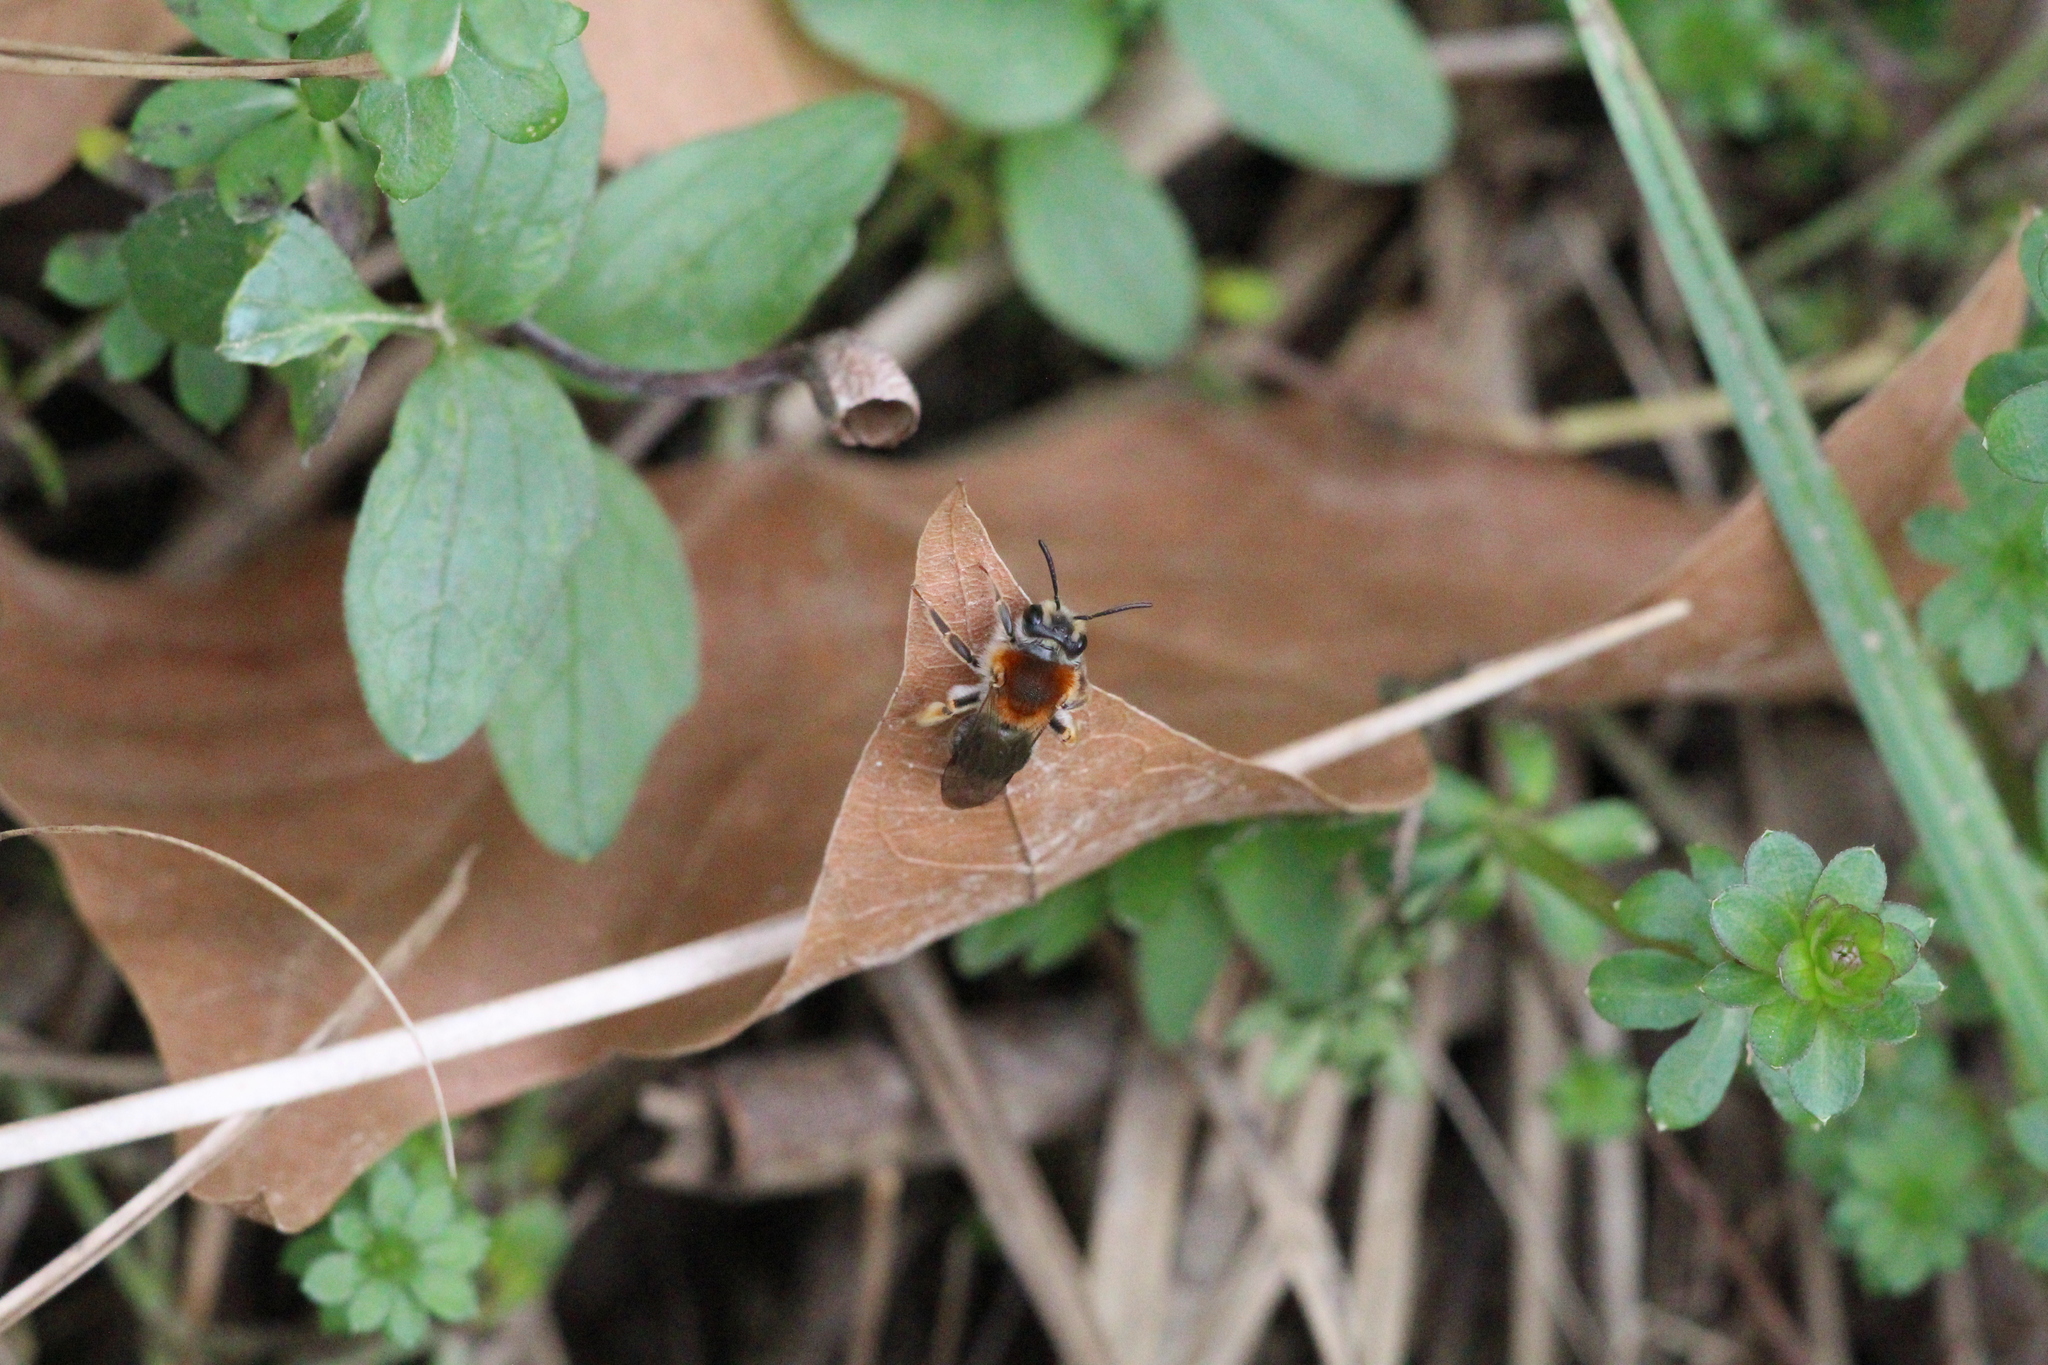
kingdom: Animalia
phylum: Arthropoda
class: Insecta
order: Hymenoptera
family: Andrenidae
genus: Andrena
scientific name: Andrena haemorrhoa
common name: Early mining bee
